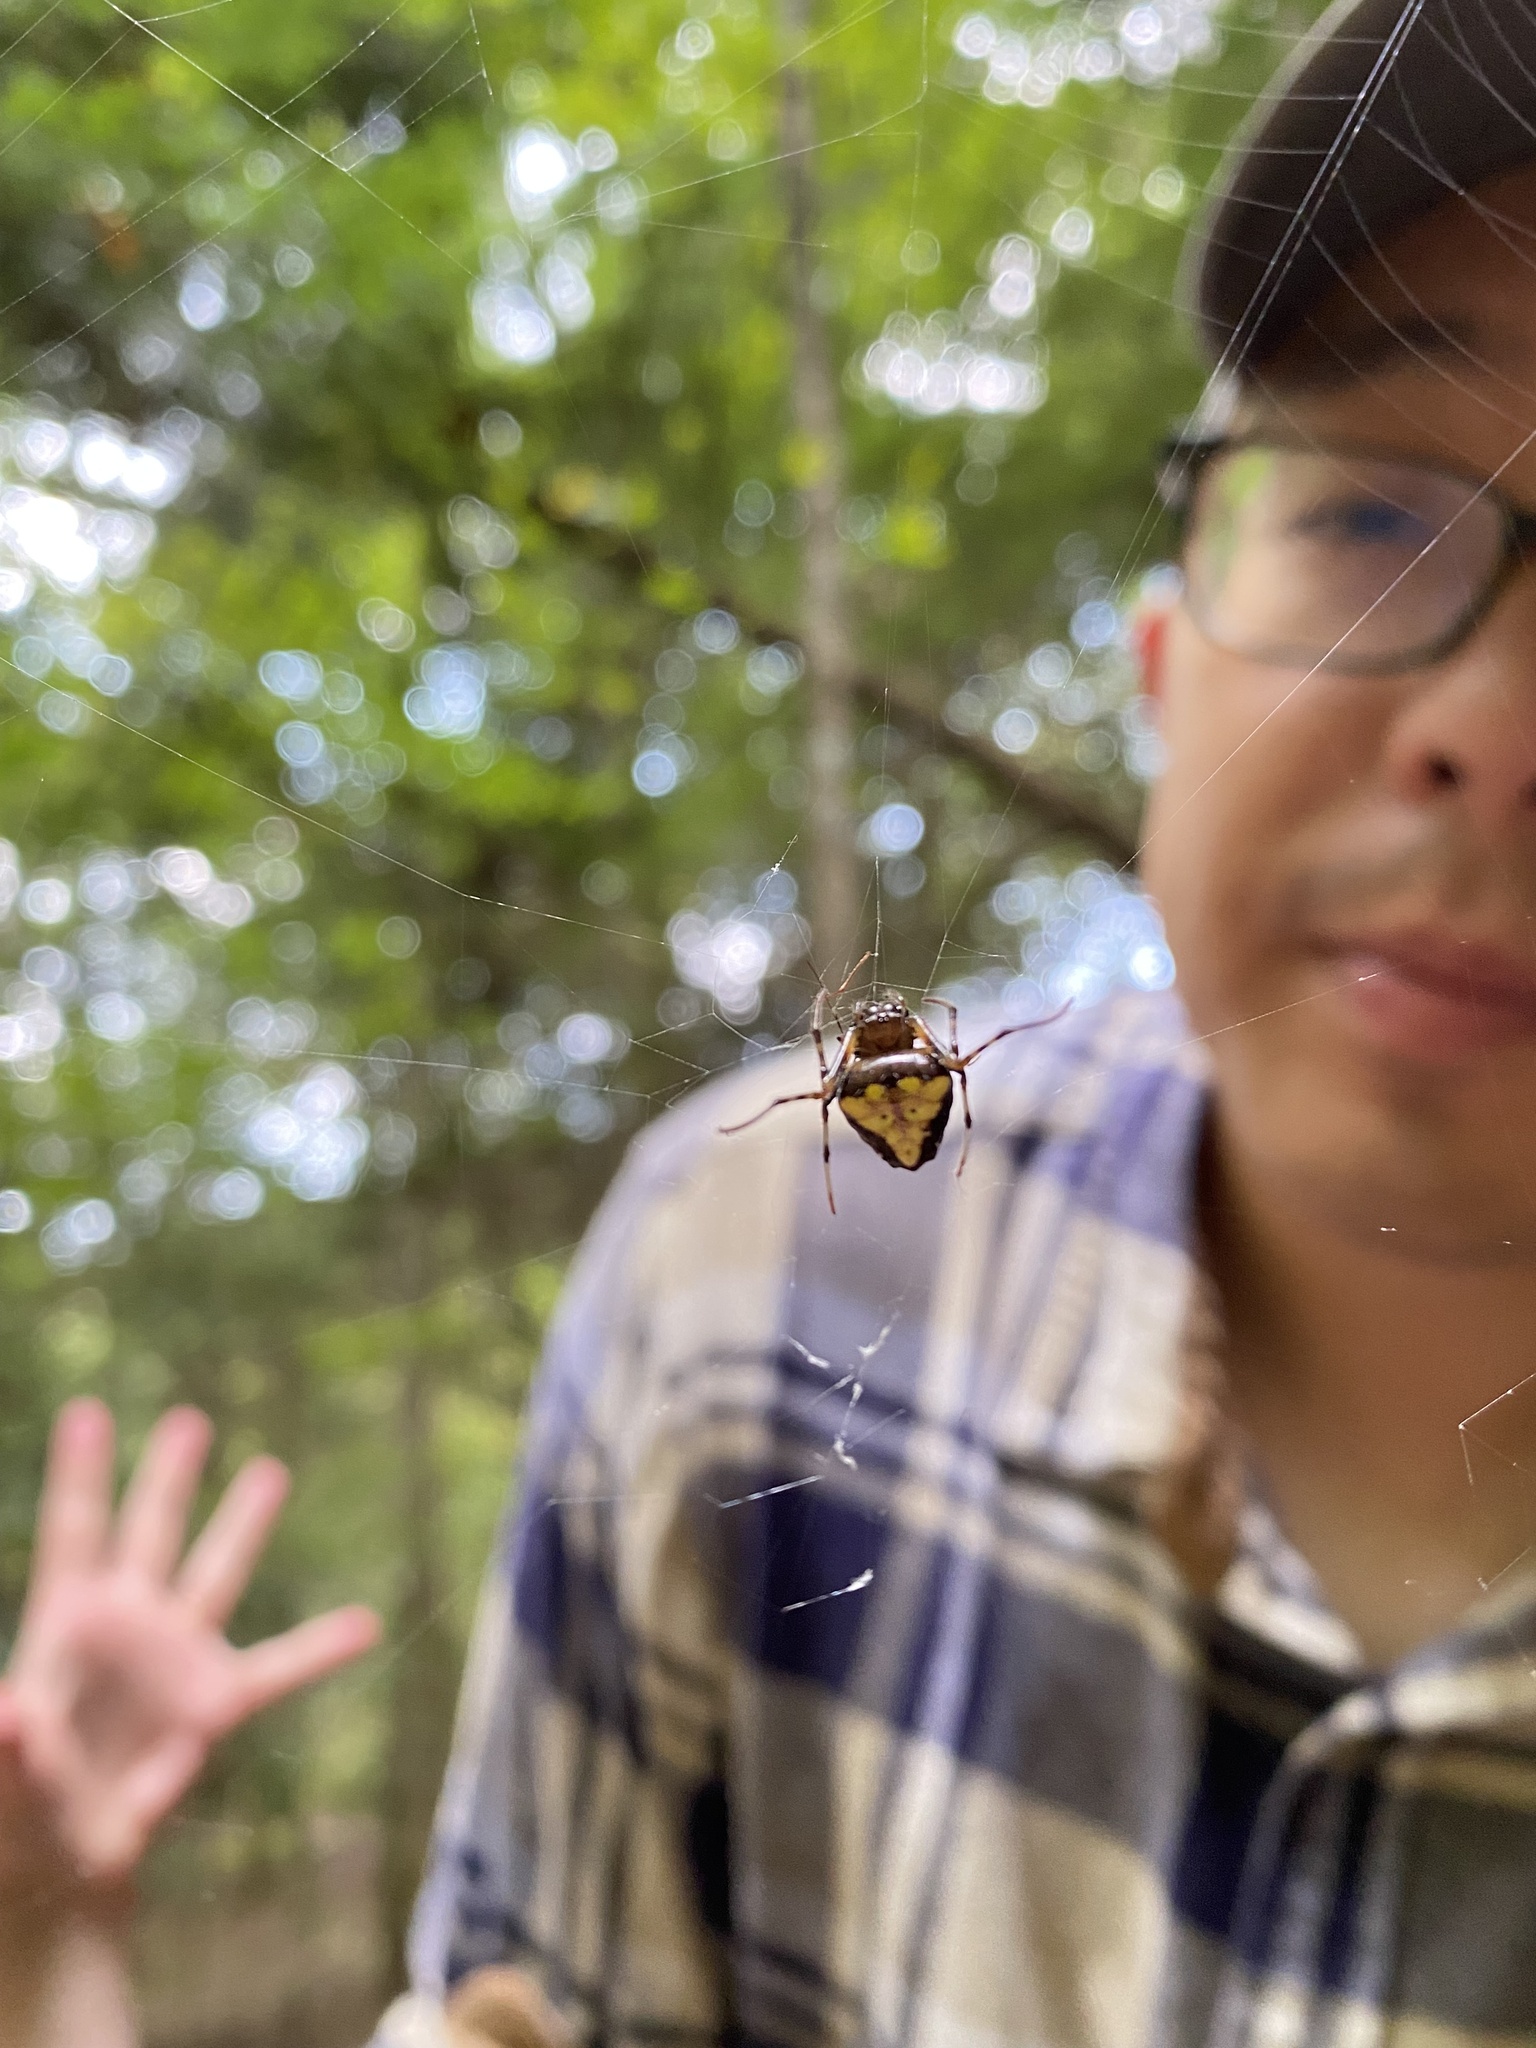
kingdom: Animalia
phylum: Arthropoda
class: Arachnida
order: Araneae
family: Araneidae
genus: Verrucosa
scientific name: Verrucosa arenata
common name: Orb weavers
